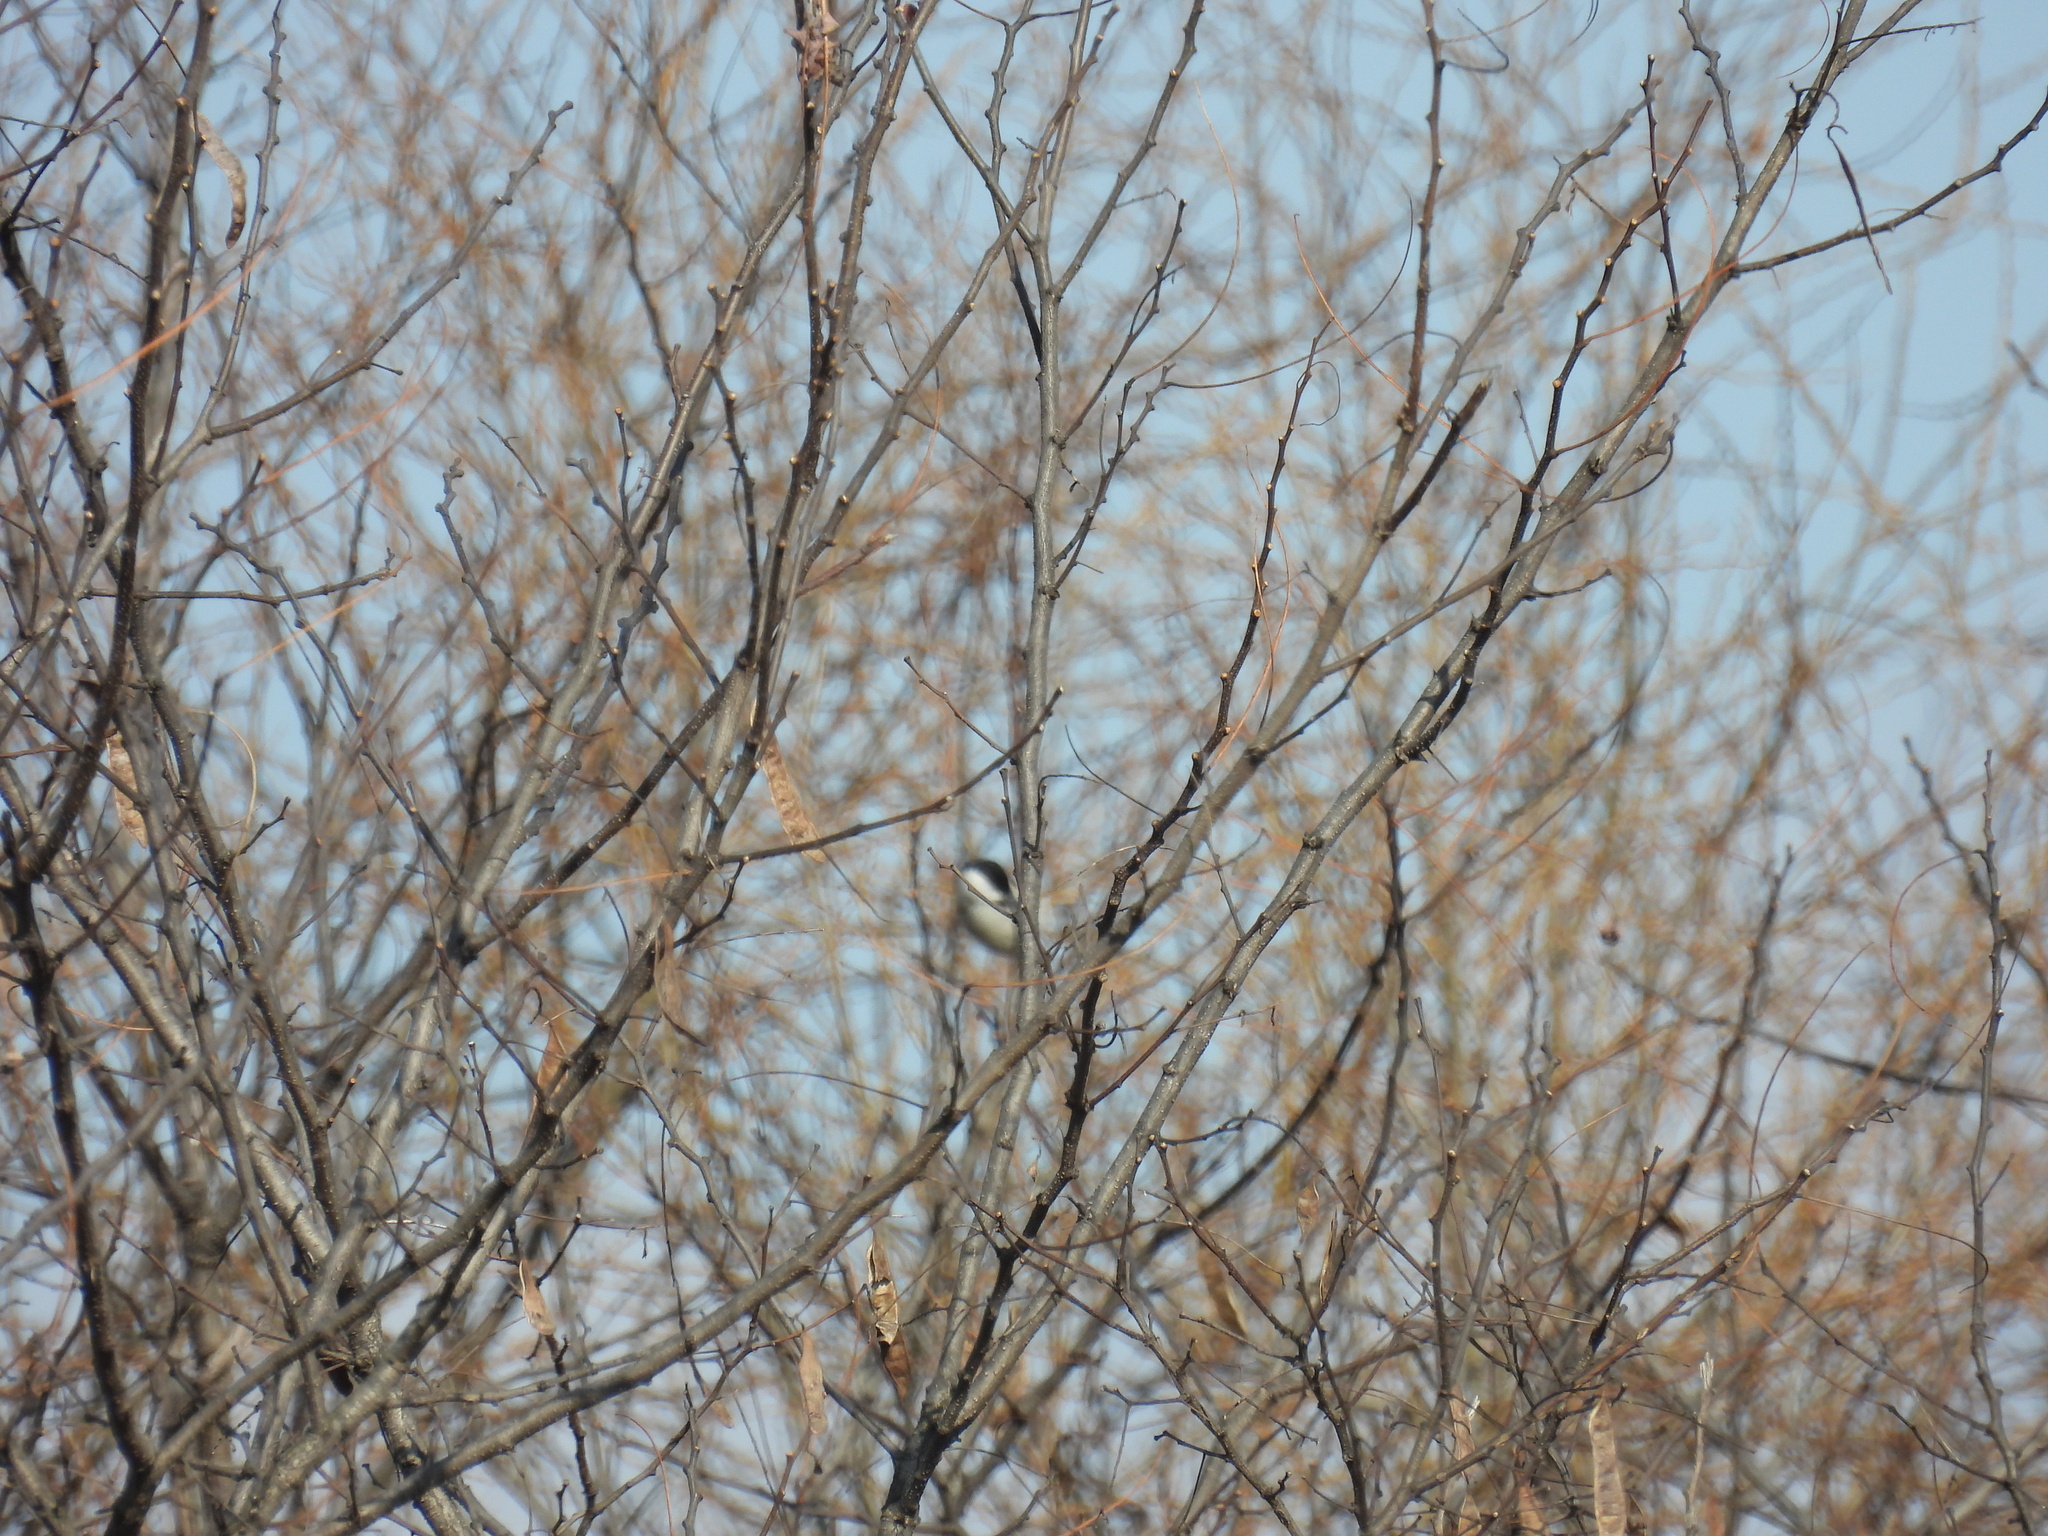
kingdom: Animalia
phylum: Chordata
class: Aves
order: Passeriformes
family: Paridae
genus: Poecile
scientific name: Poecile palustris
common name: Marsh tit
